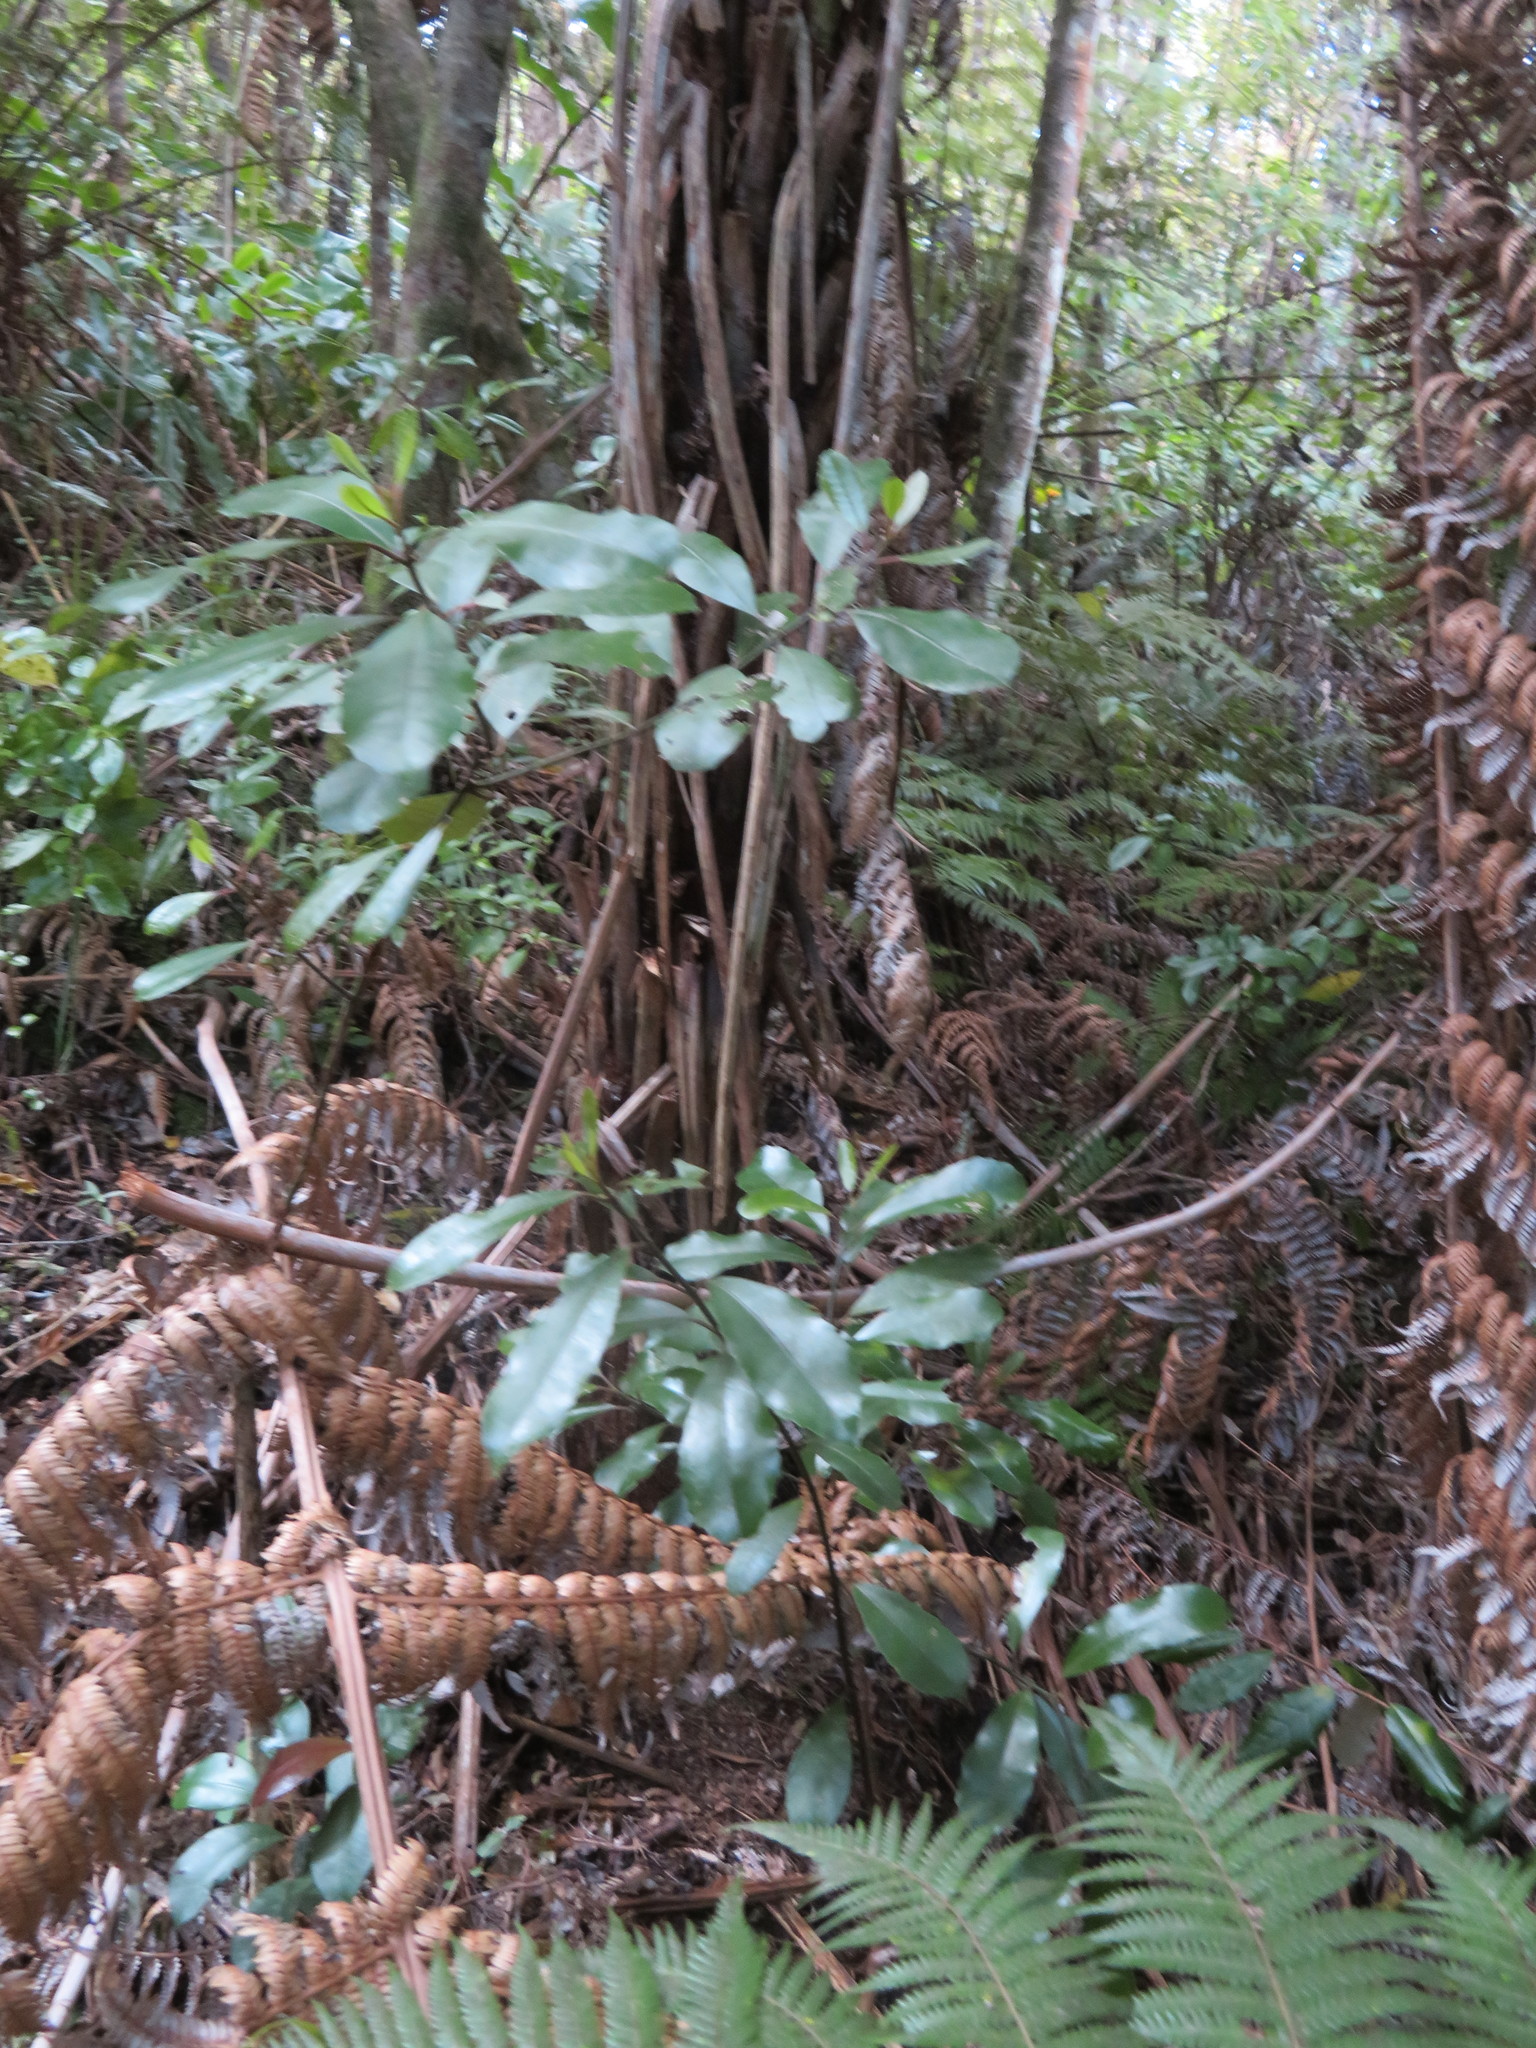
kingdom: Plantae
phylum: Tracheophyta
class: Magnoliopsida
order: Laurales
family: Monimiaceae
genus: Hedycarya
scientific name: Hedycarya arborea
